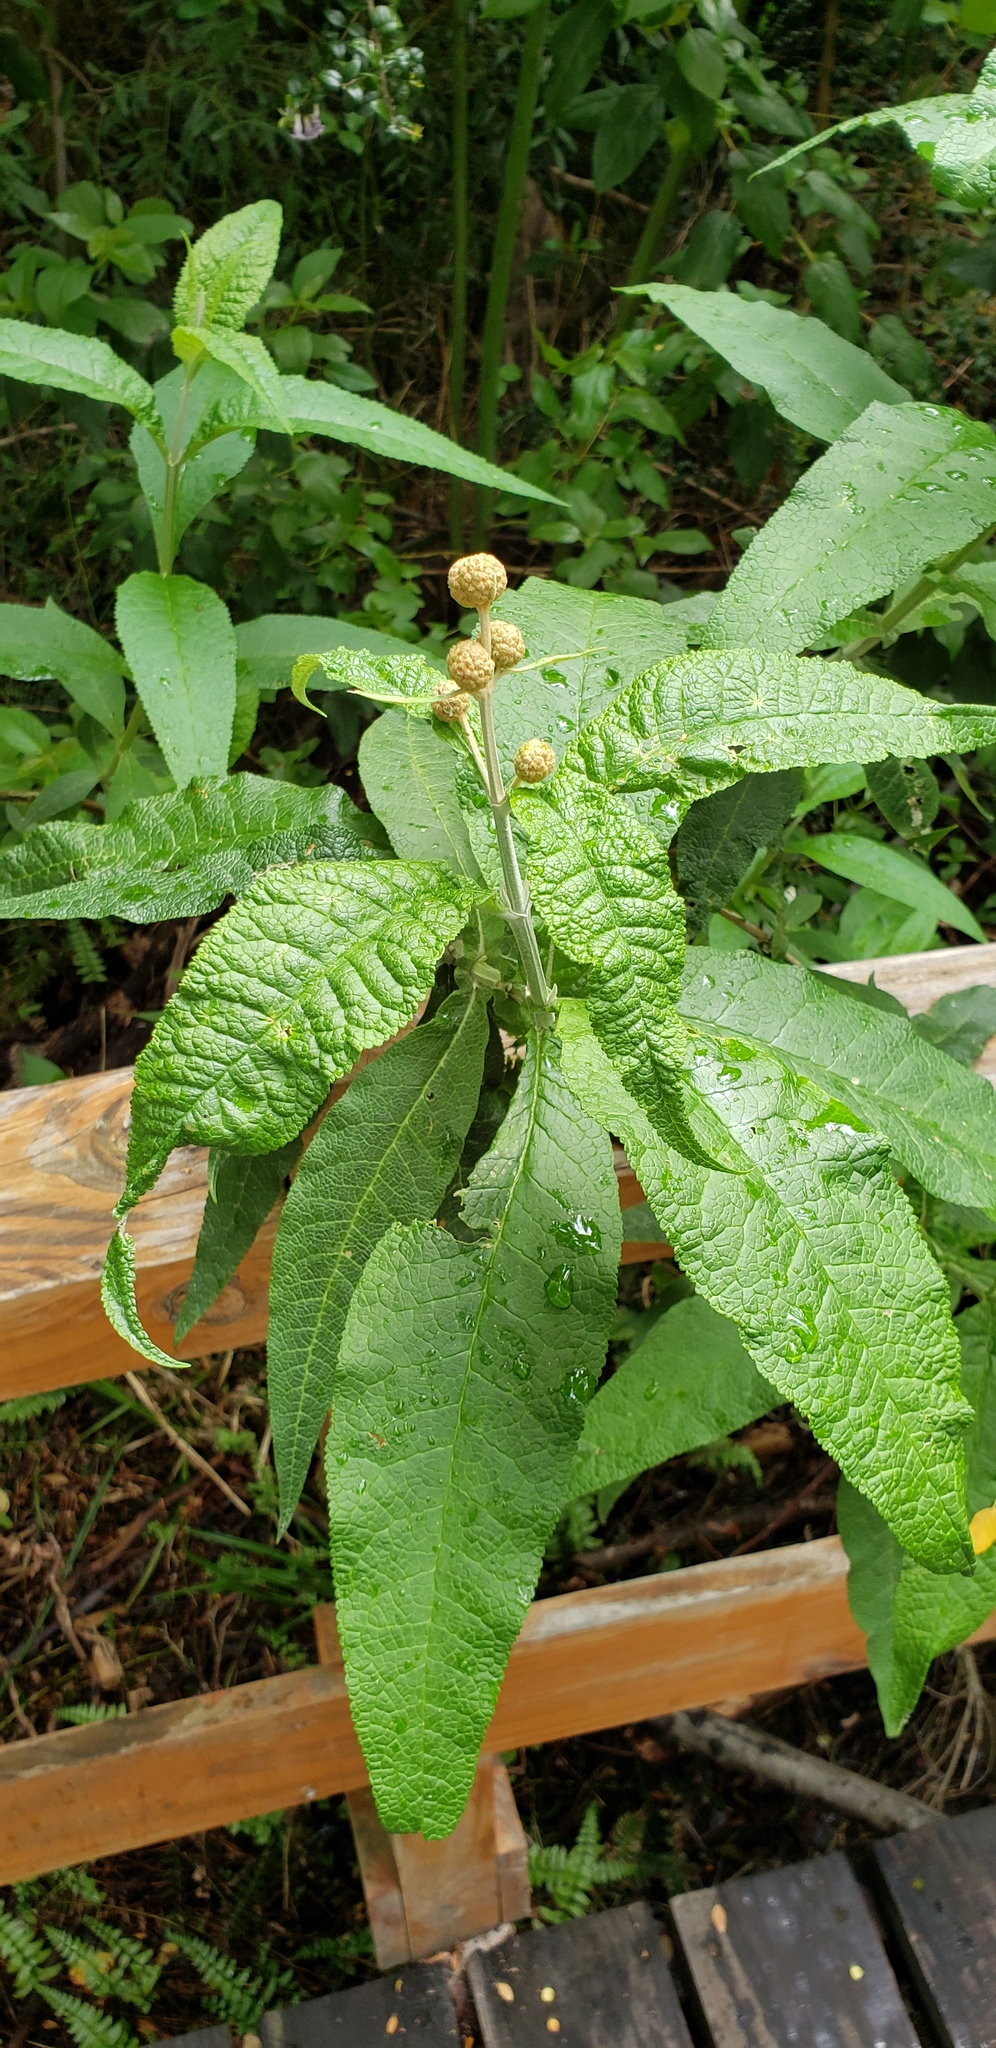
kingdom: Plantae
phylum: Tracheophyta
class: Magnoliopsida
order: Lamiales
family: Scrophulariaceae
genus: Buddleja
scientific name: Buddleja globosa
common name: Orange-ball-tree
